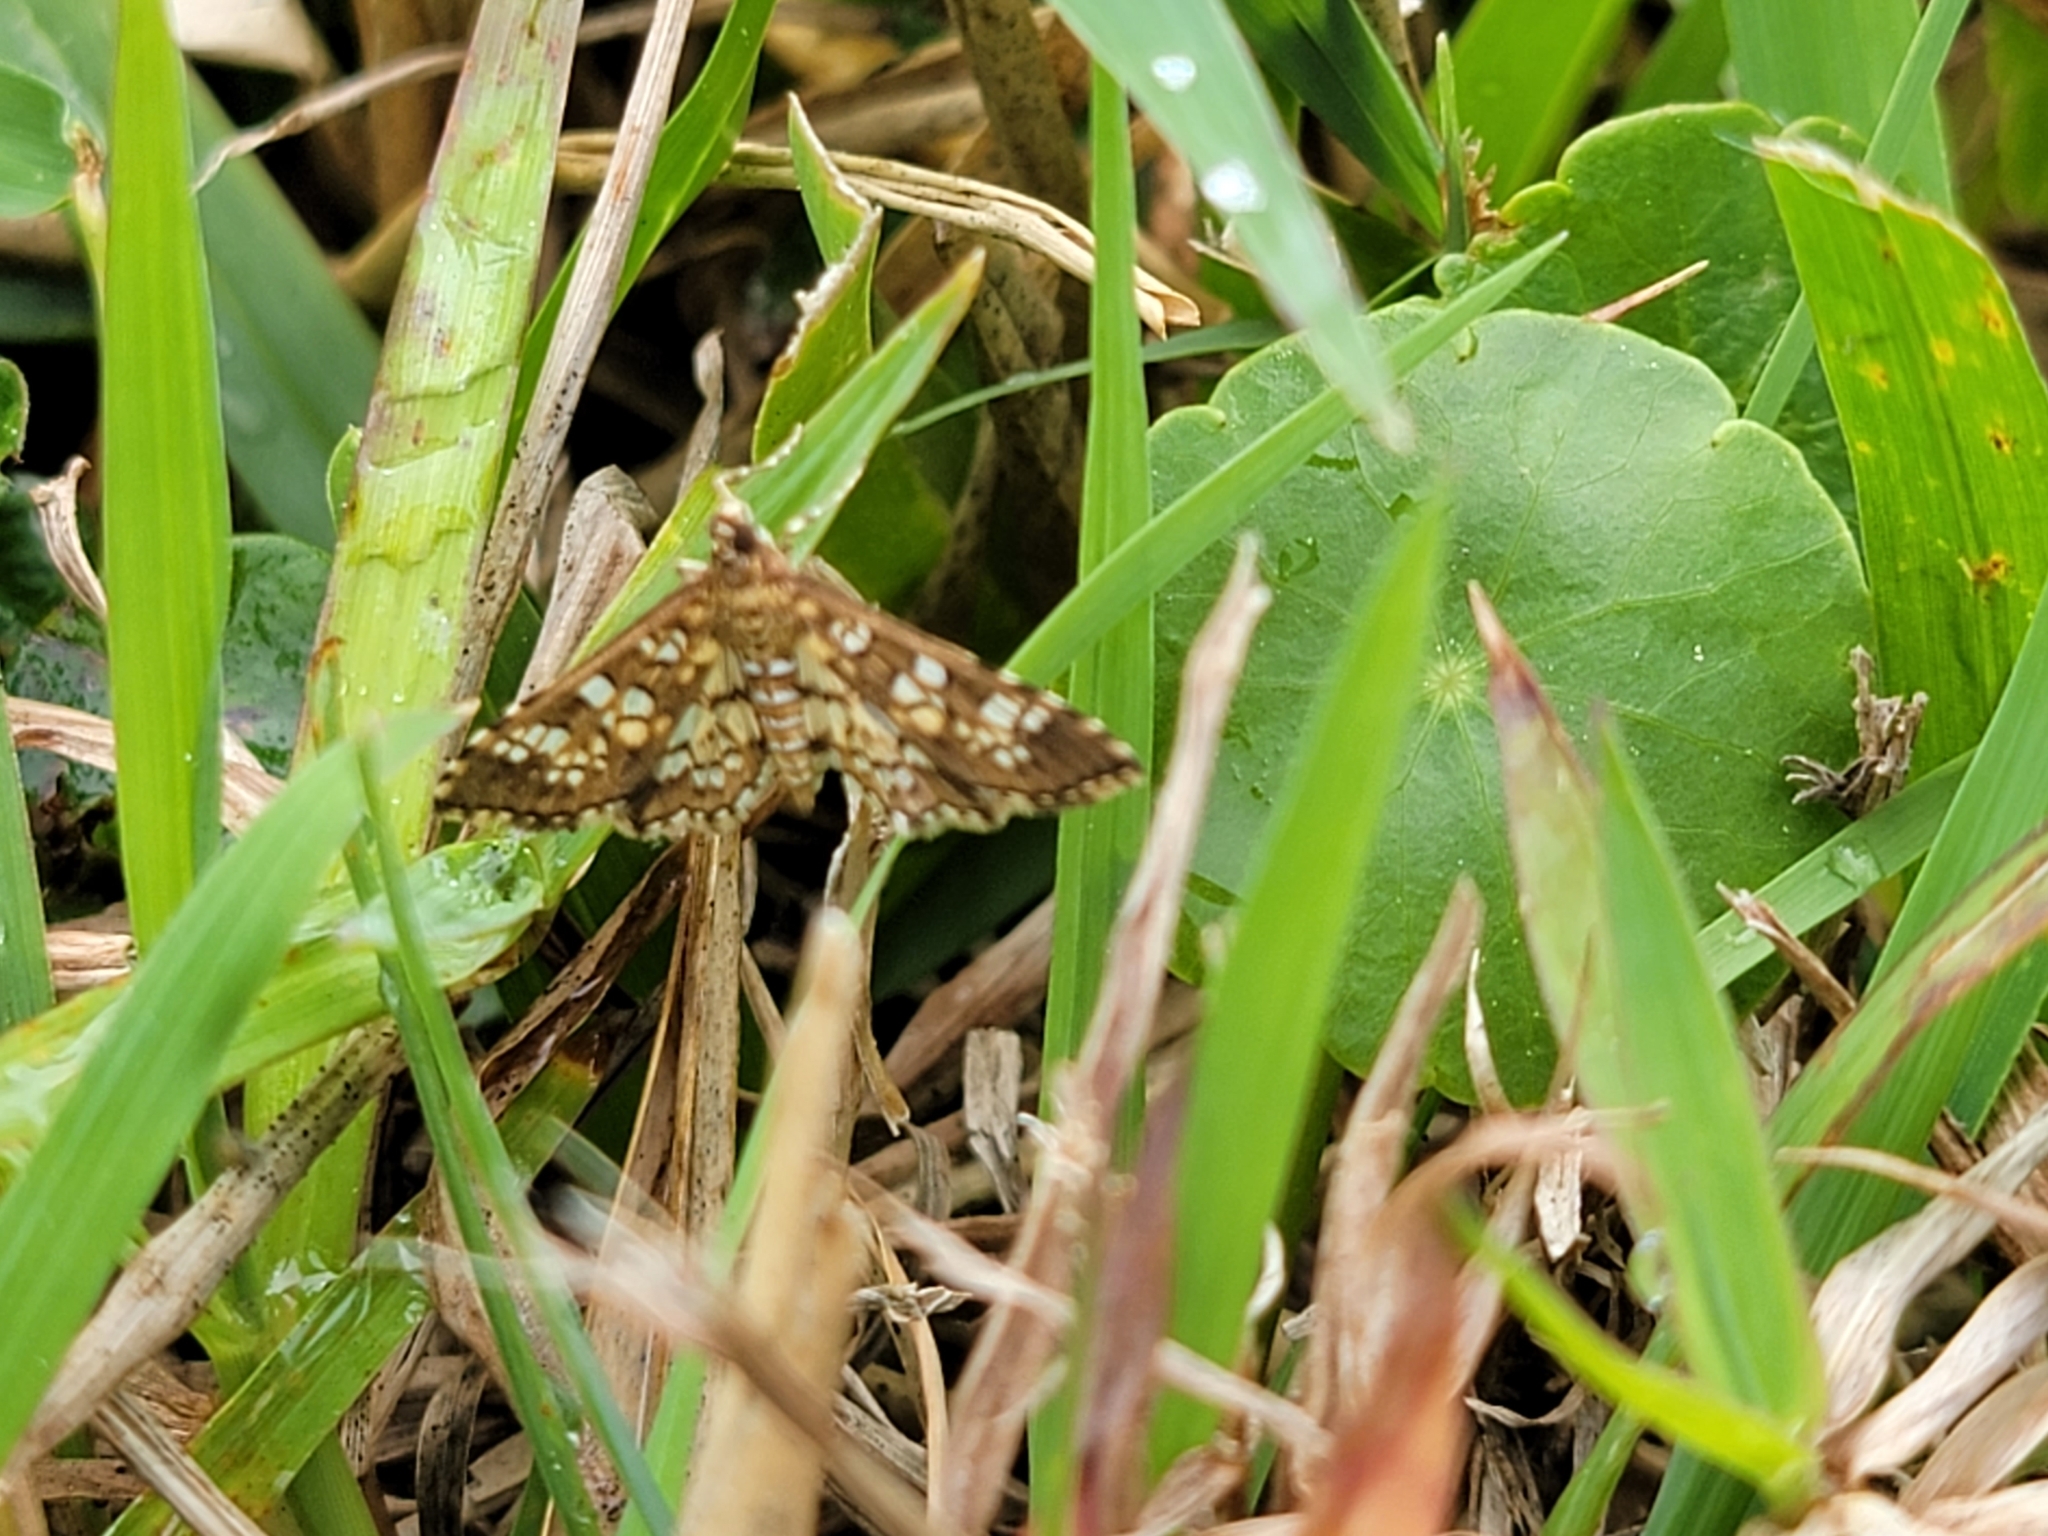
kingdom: Animalia
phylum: Arthropoda
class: Insecta
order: Lepidoptera
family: Crambidae
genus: Samea
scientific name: Samea ecclesialis
